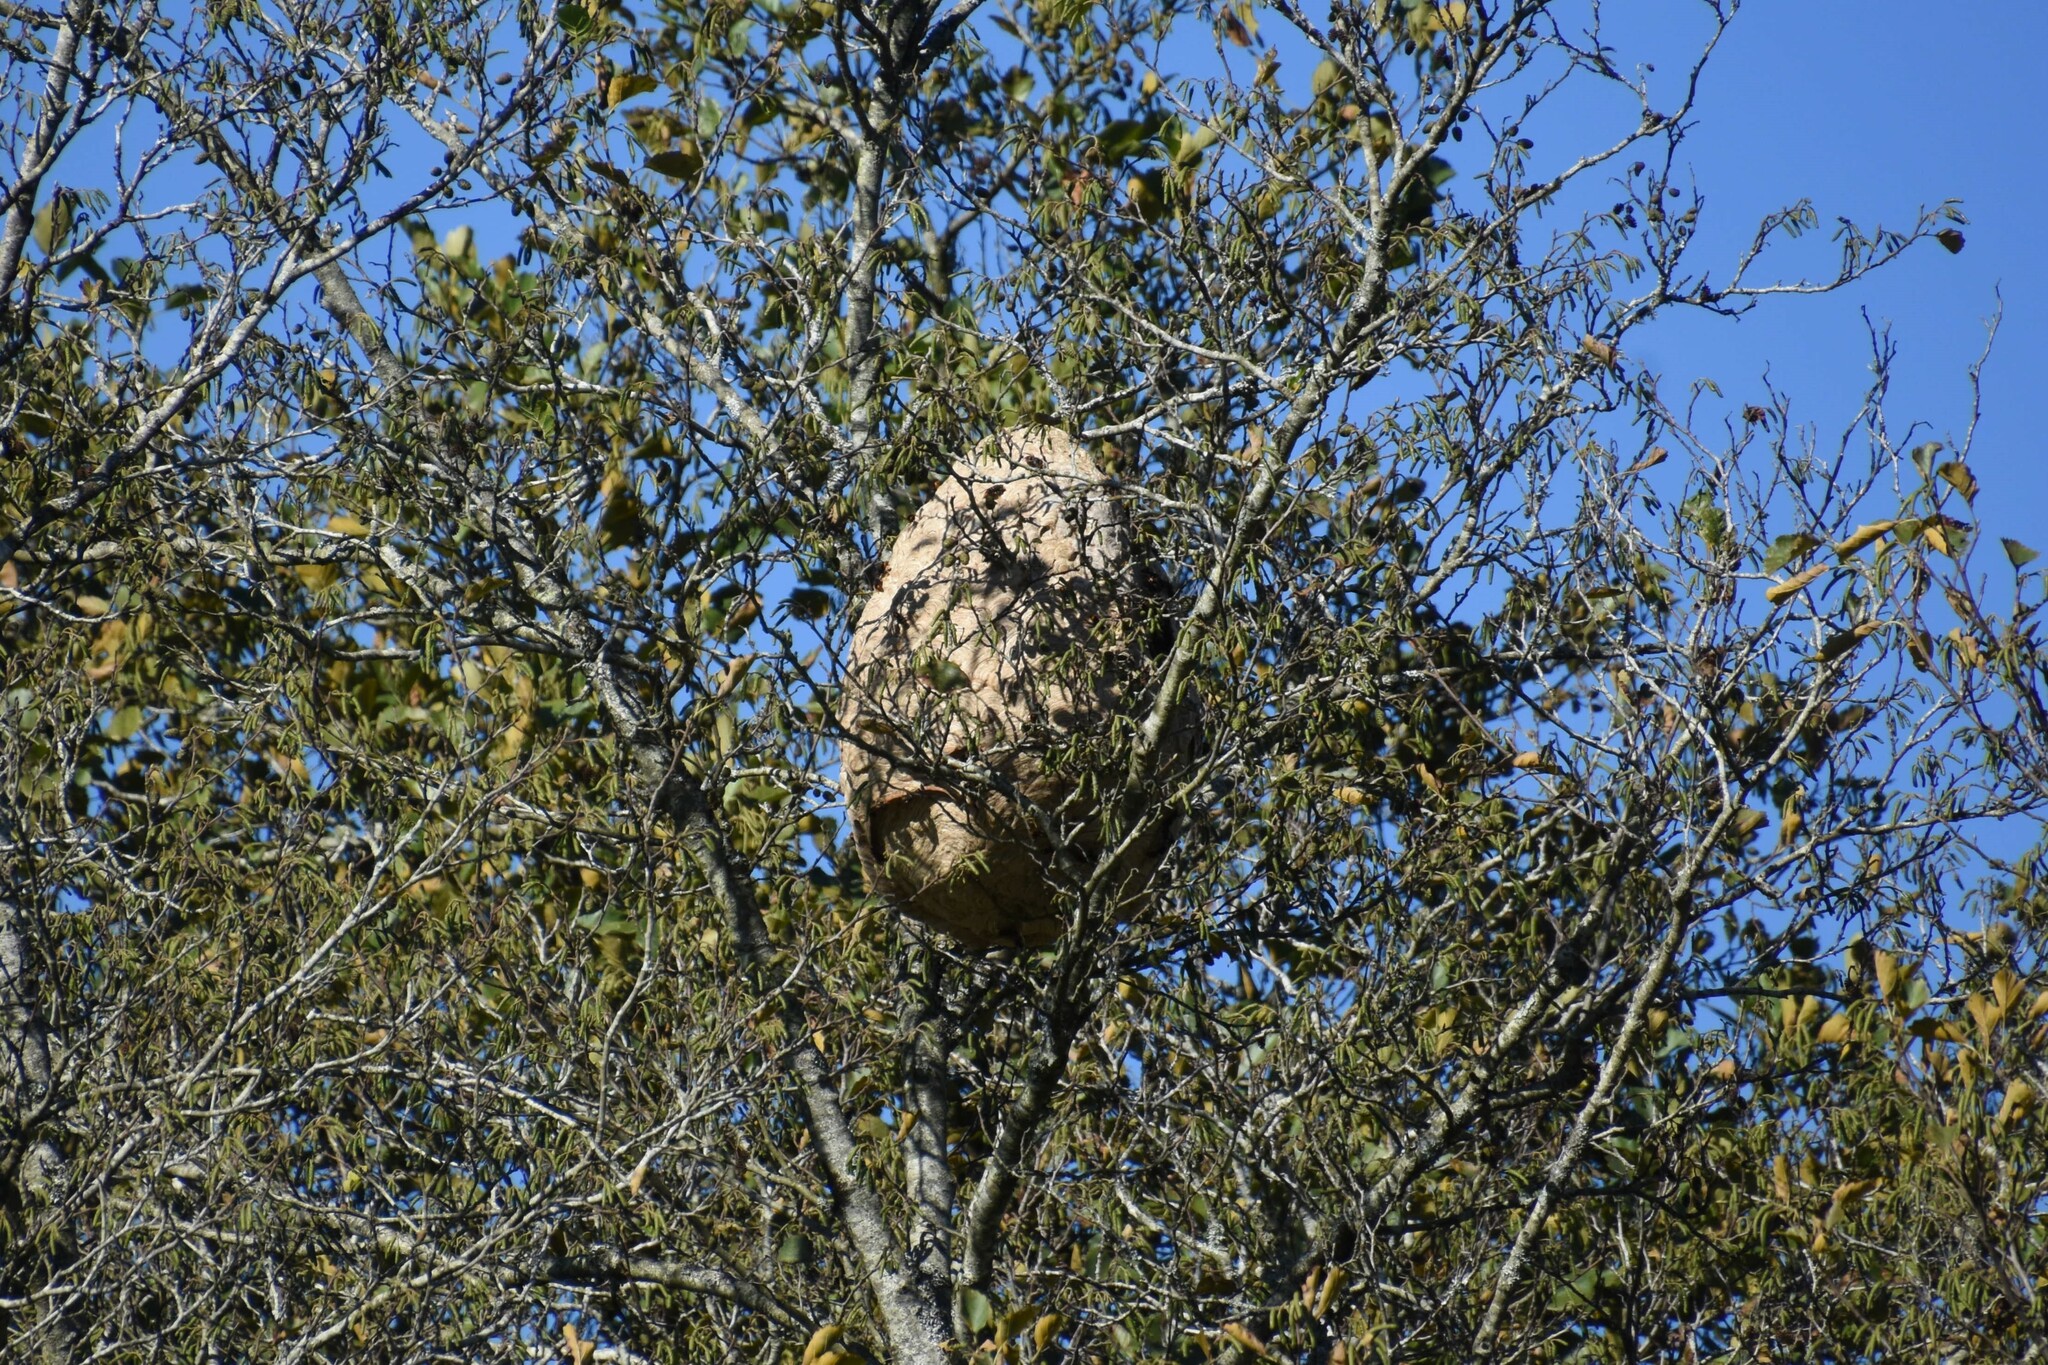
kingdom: Animalia
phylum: Arthropoda
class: Insecta
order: Hymenoptera
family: Vespidae
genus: Vespa
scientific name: Vespa velutina
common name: Asian hornet
